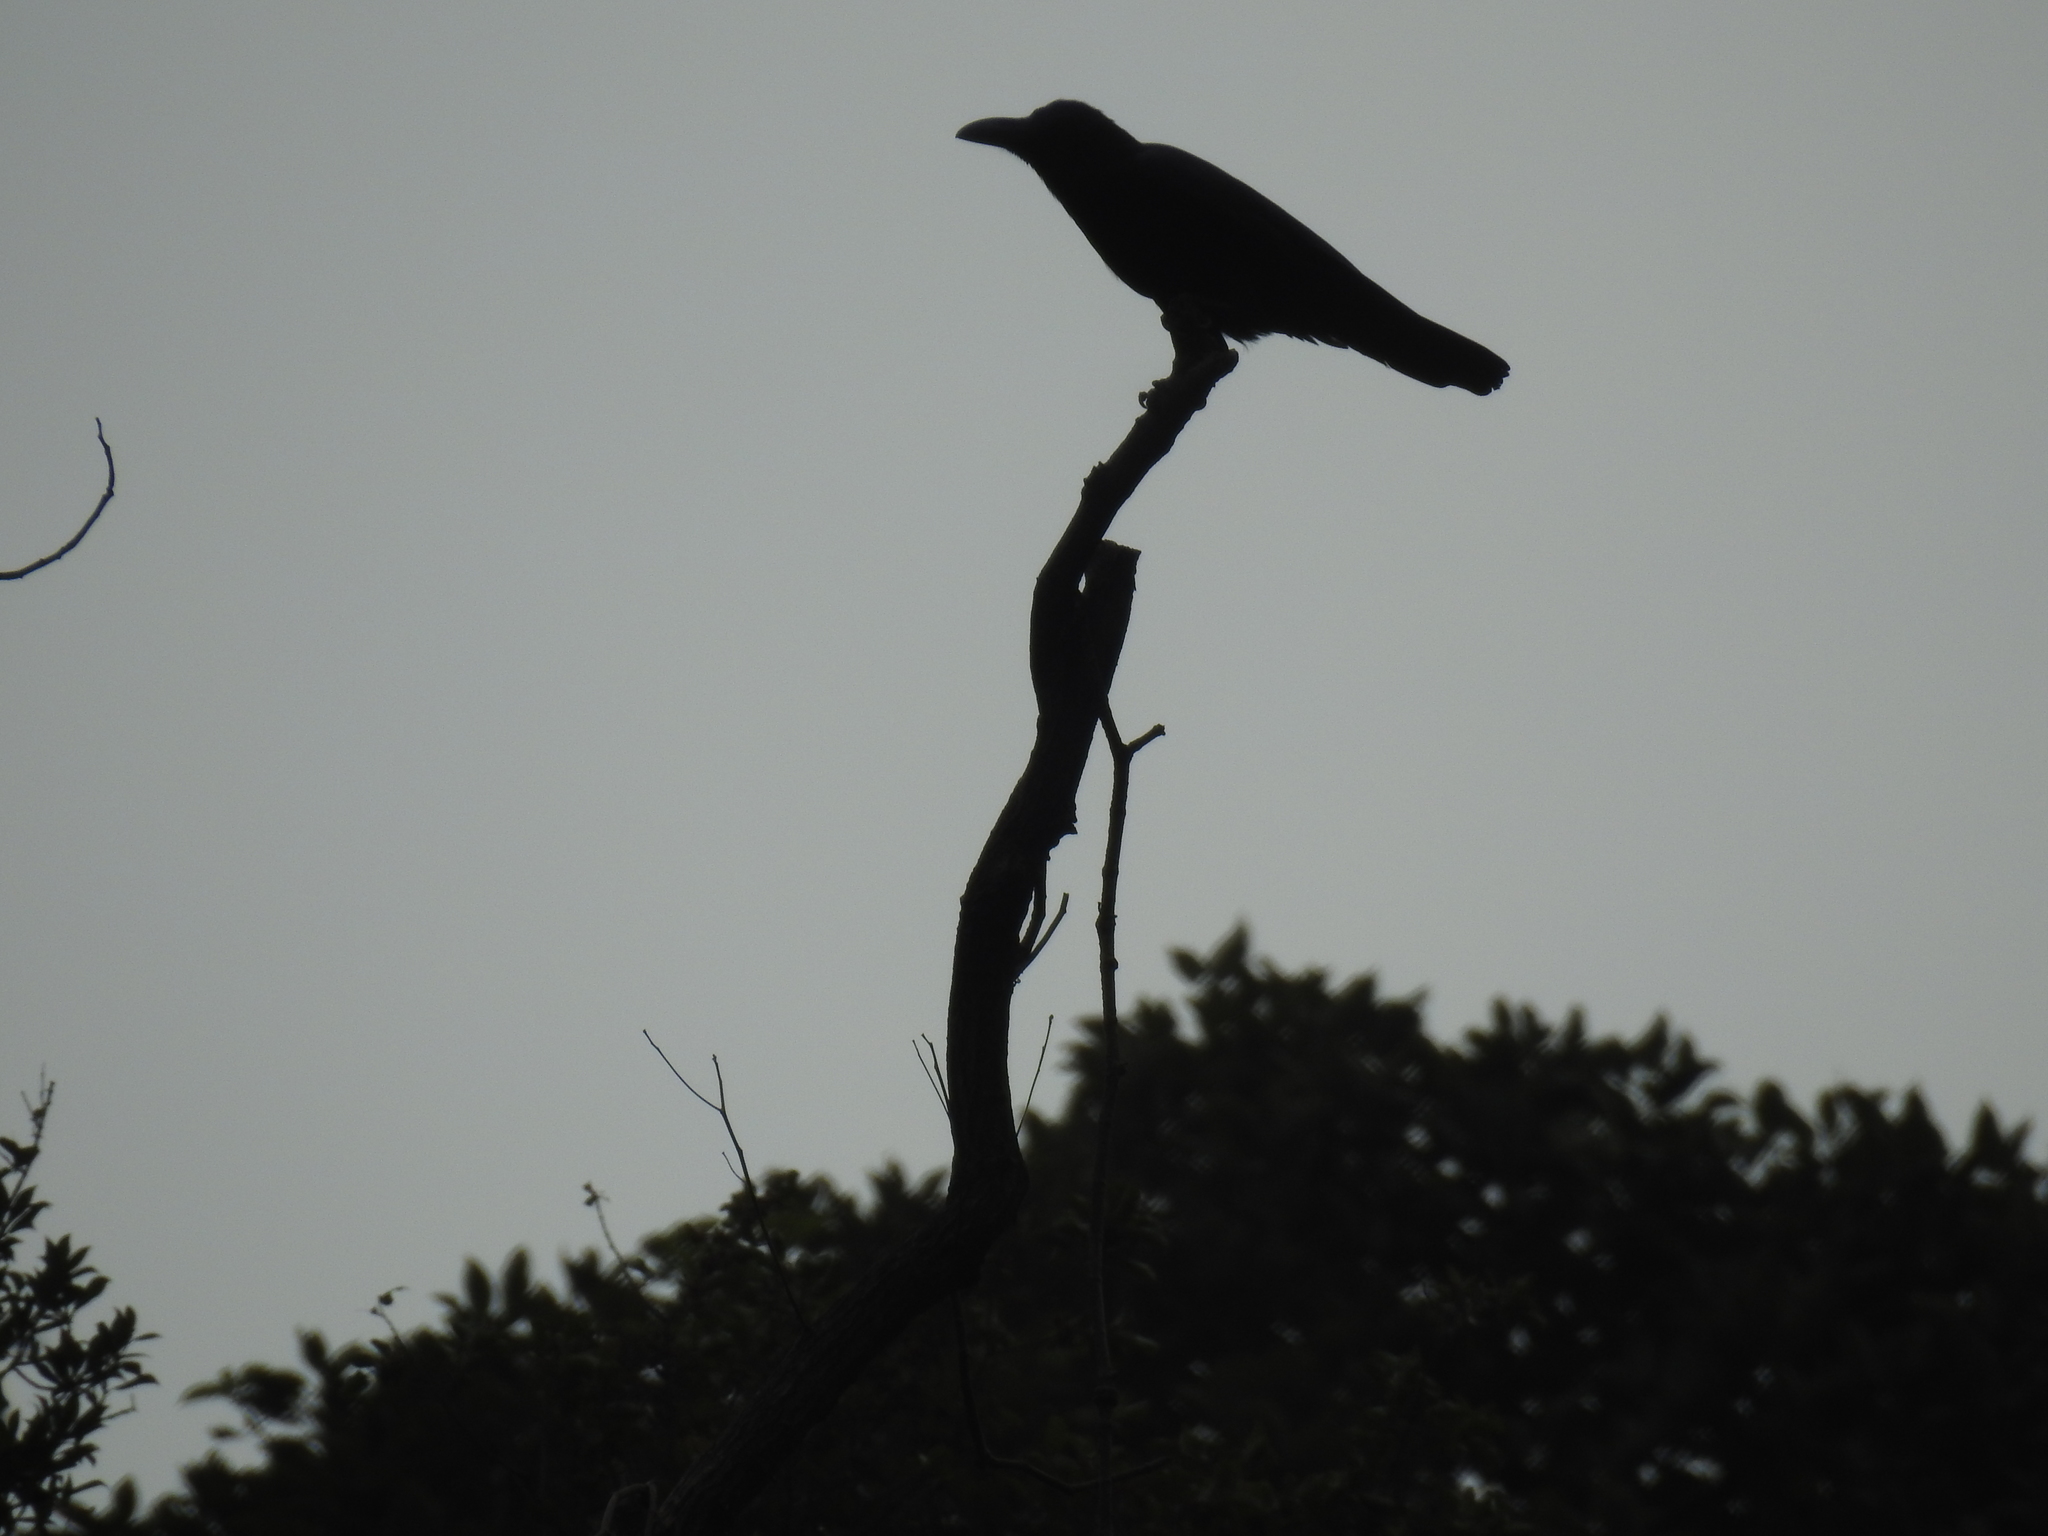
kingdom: Animalia
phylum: Chordata
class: Aves
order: Passeriformes
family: Corvidae
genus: Corvus
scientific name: Corvus macrorhynchos
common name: Large-billed crow
